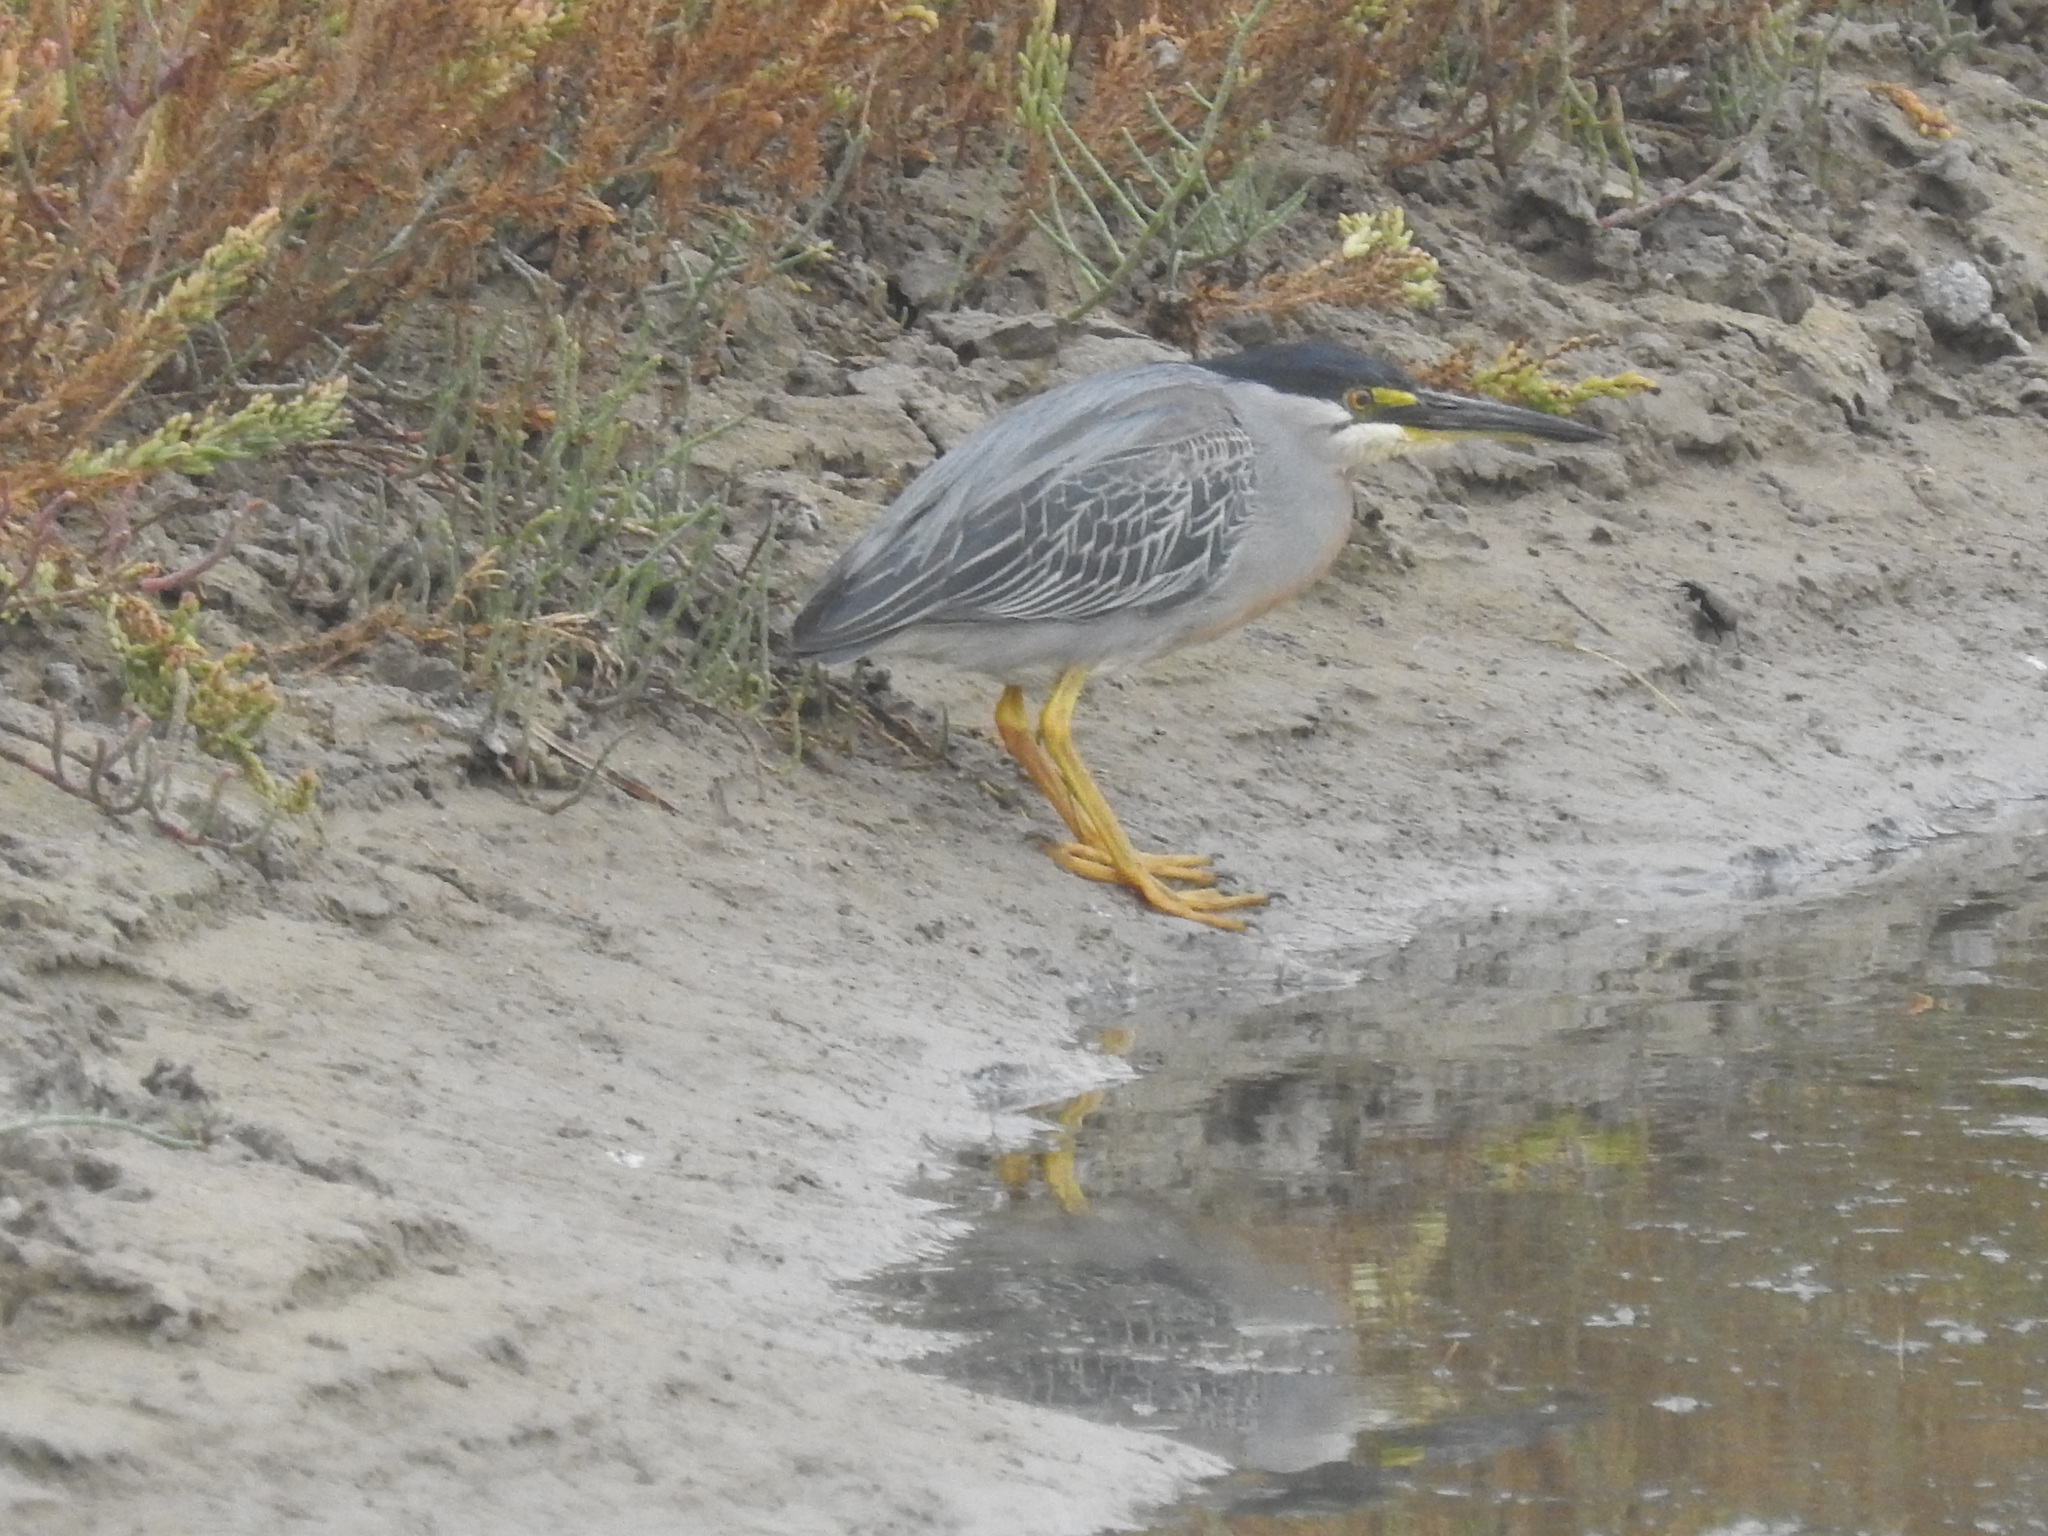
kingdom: Animalia
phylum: Chordata
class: Aves
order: Pelecaniformes
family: Ardeidae
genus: Butorides
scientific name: Butorides striata
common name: Striated heron
